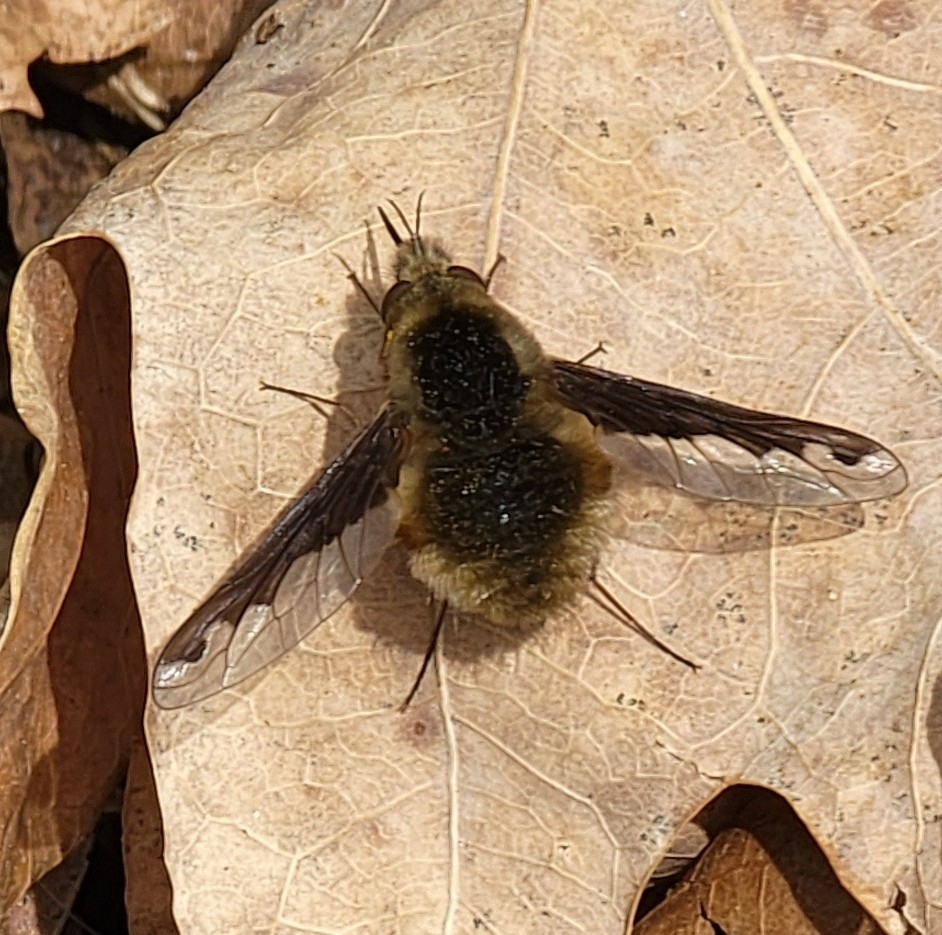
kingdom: Animalia
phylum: Arthropoda
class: Insecta
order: Diptera
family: Bombyliidae
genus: Bombylius
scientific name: Bombylius major
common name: Bee fly
